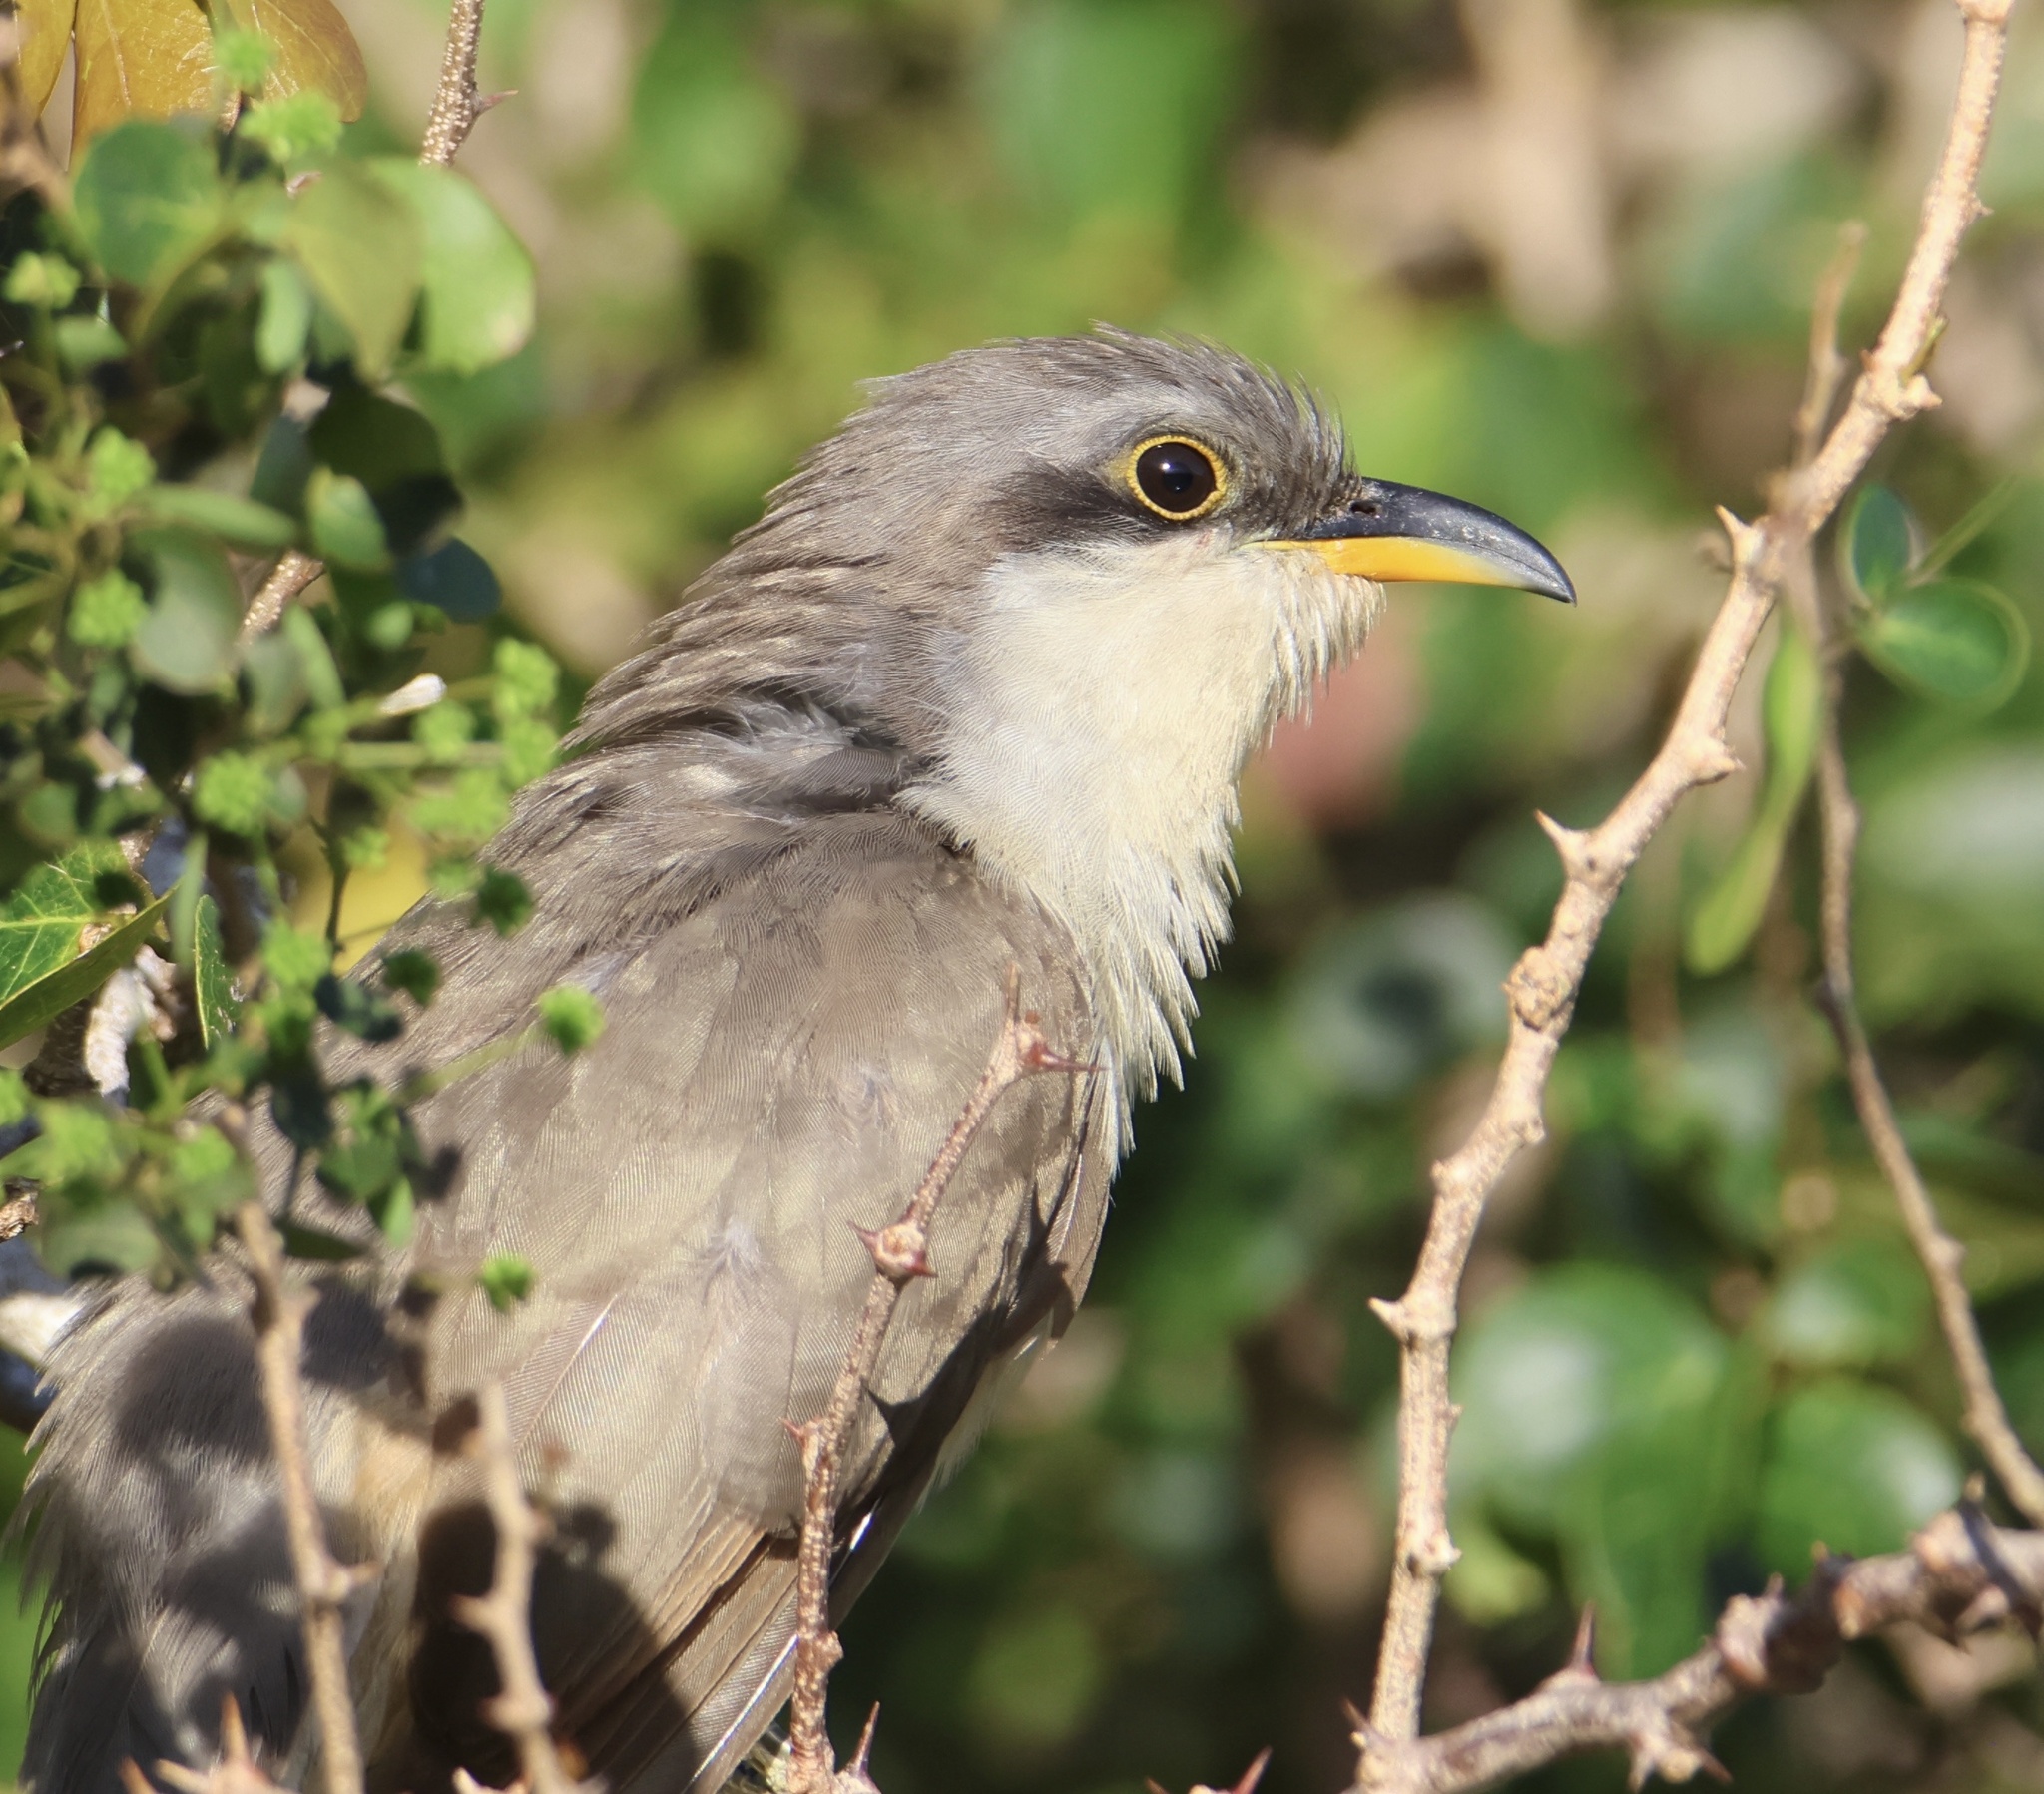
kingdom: Animalia
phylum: Chordata
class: Aves
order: Cuculiformes
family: Cuculidae
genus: Coccyzus
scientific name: Coccyzus minor
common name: Mangrove cuckoo
